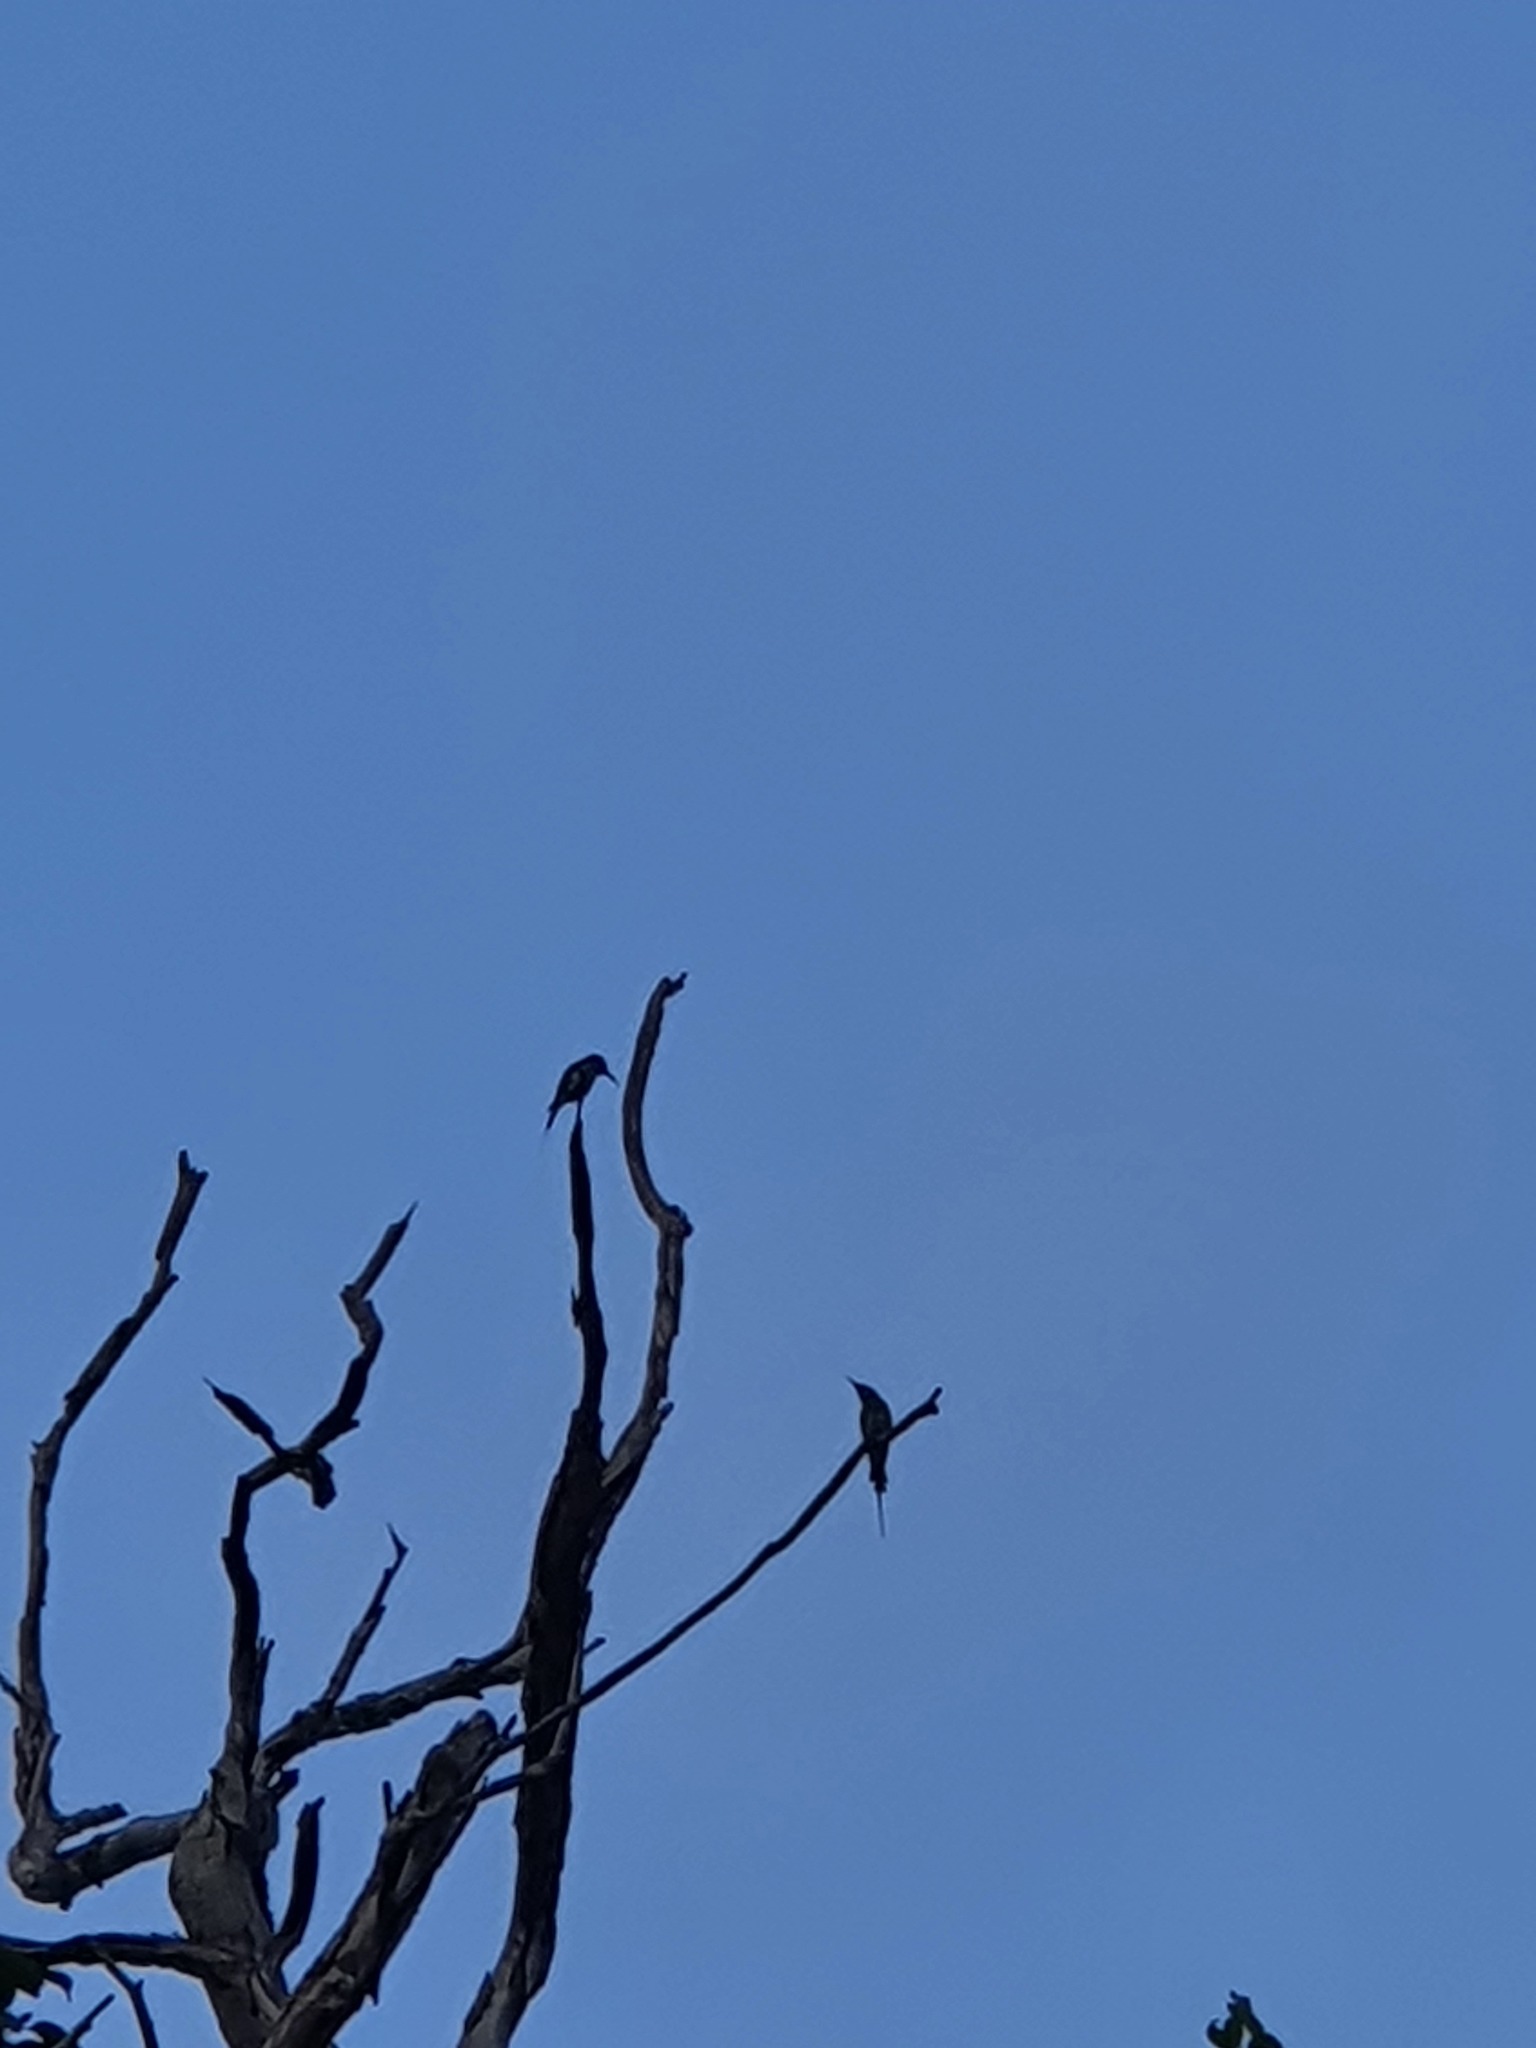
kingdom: Animalia
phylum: Chordata
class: Aves
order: Coraciiformes
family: Meropidae
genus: Merops
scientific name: Merops viridis
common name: Blue-throated bee-eater
